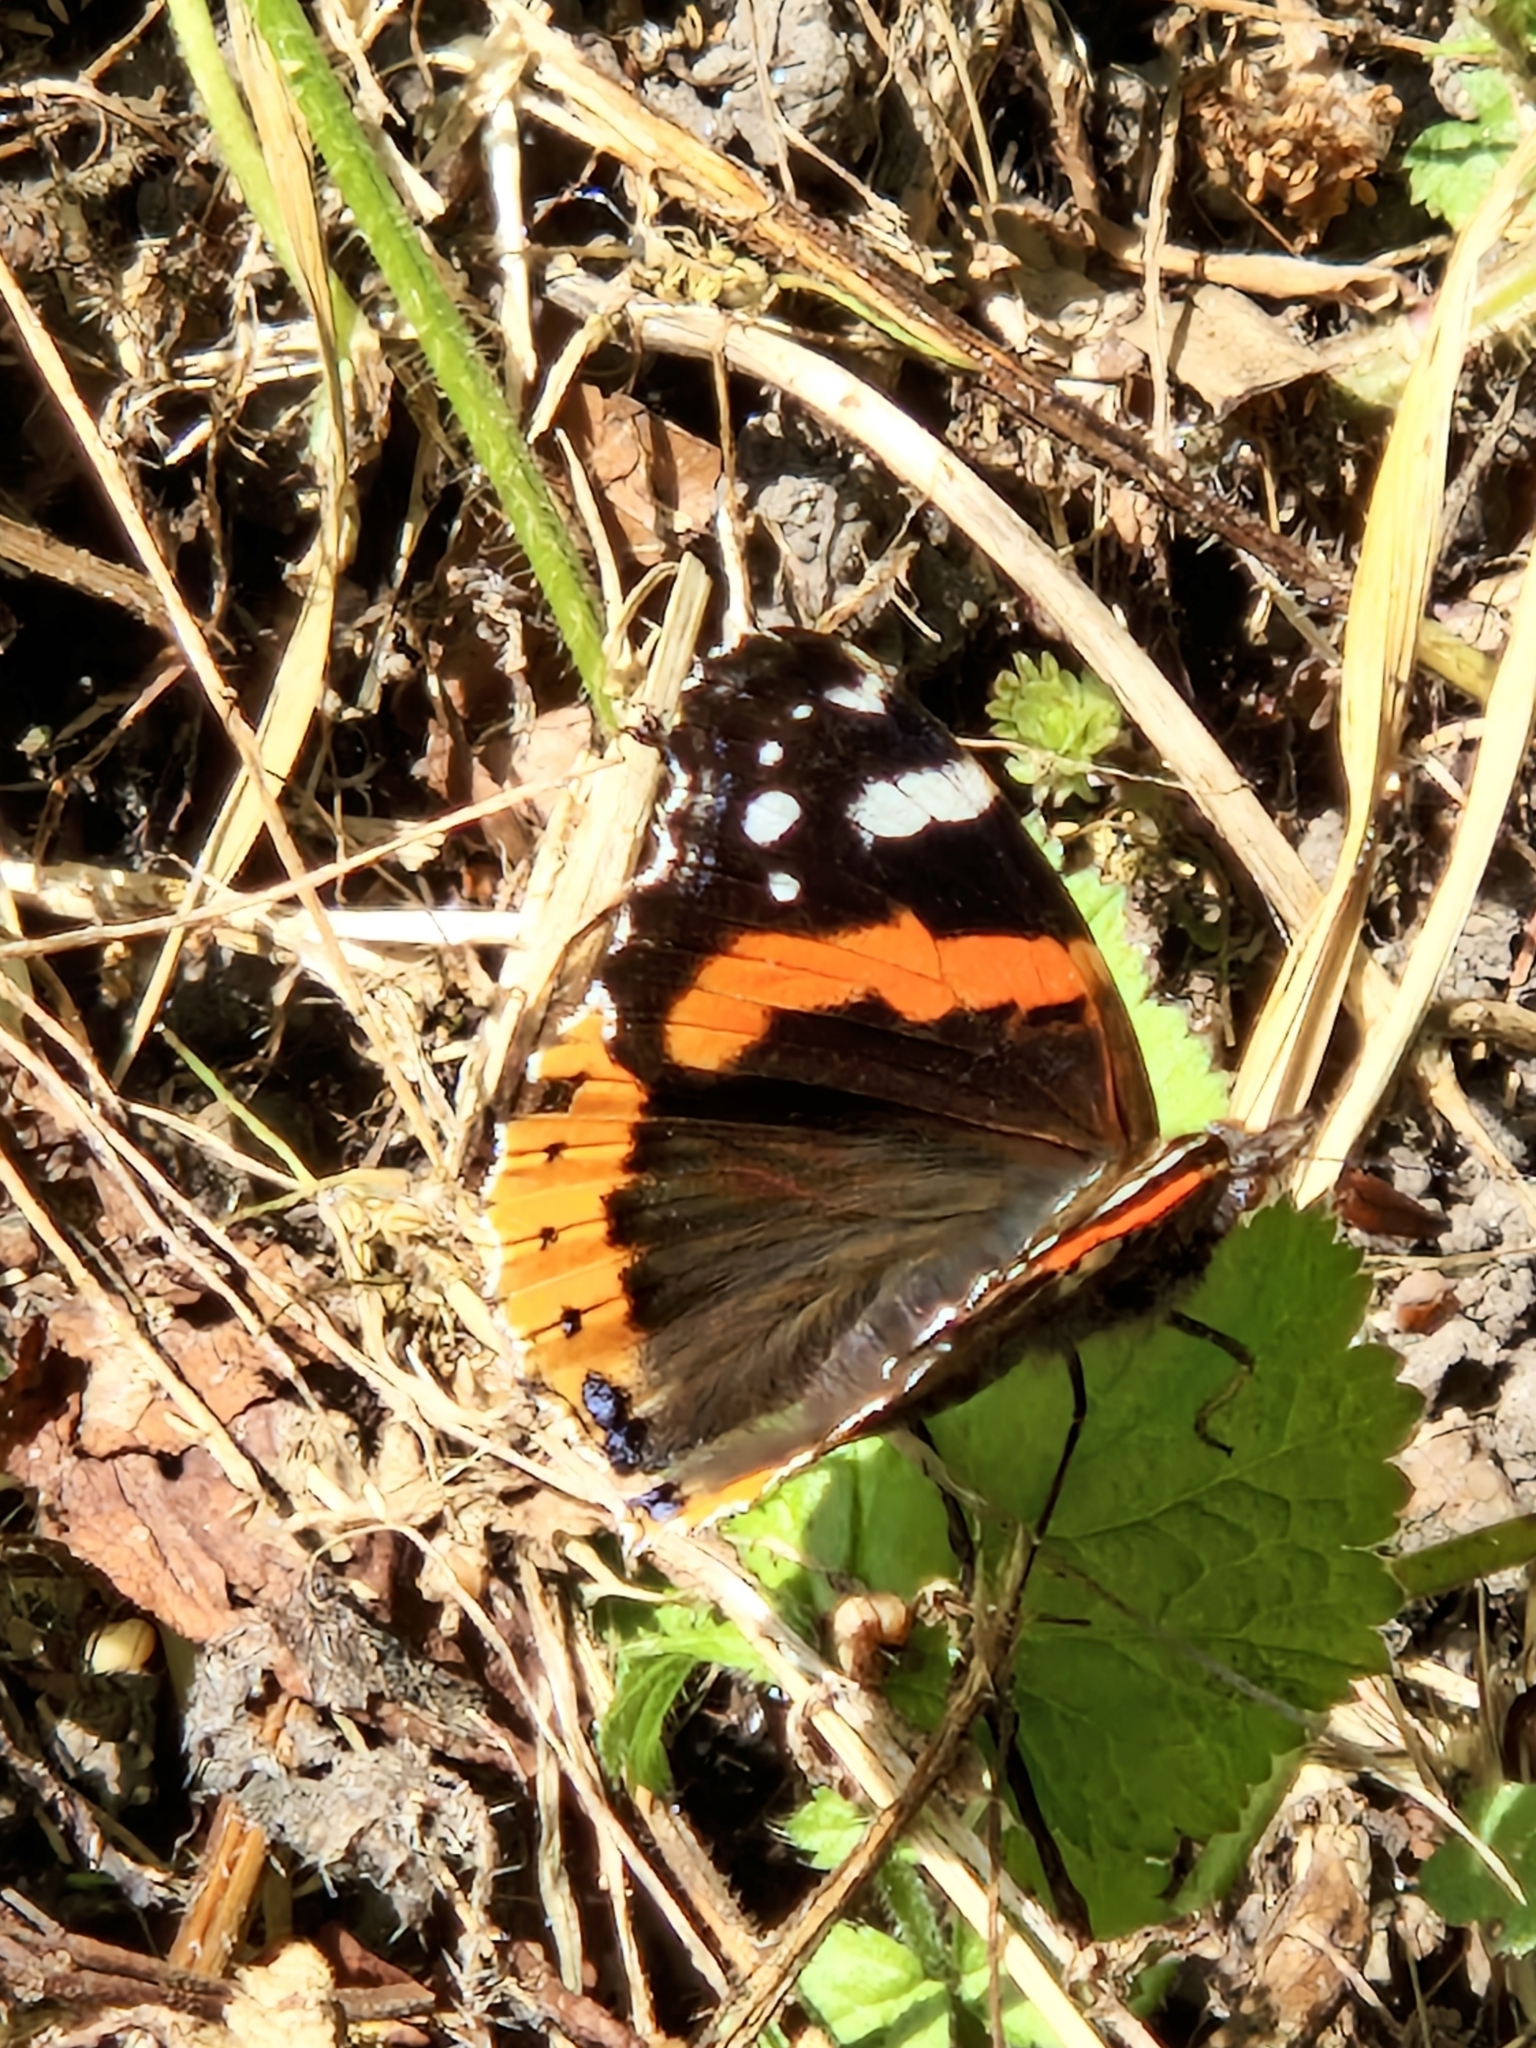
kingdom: Animalia
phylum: Arthropoda
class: Insecta
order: Lepidoptera
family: Nymphalidae
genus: Vanessa
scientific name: Vanessa atalanta
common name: Red admiral
